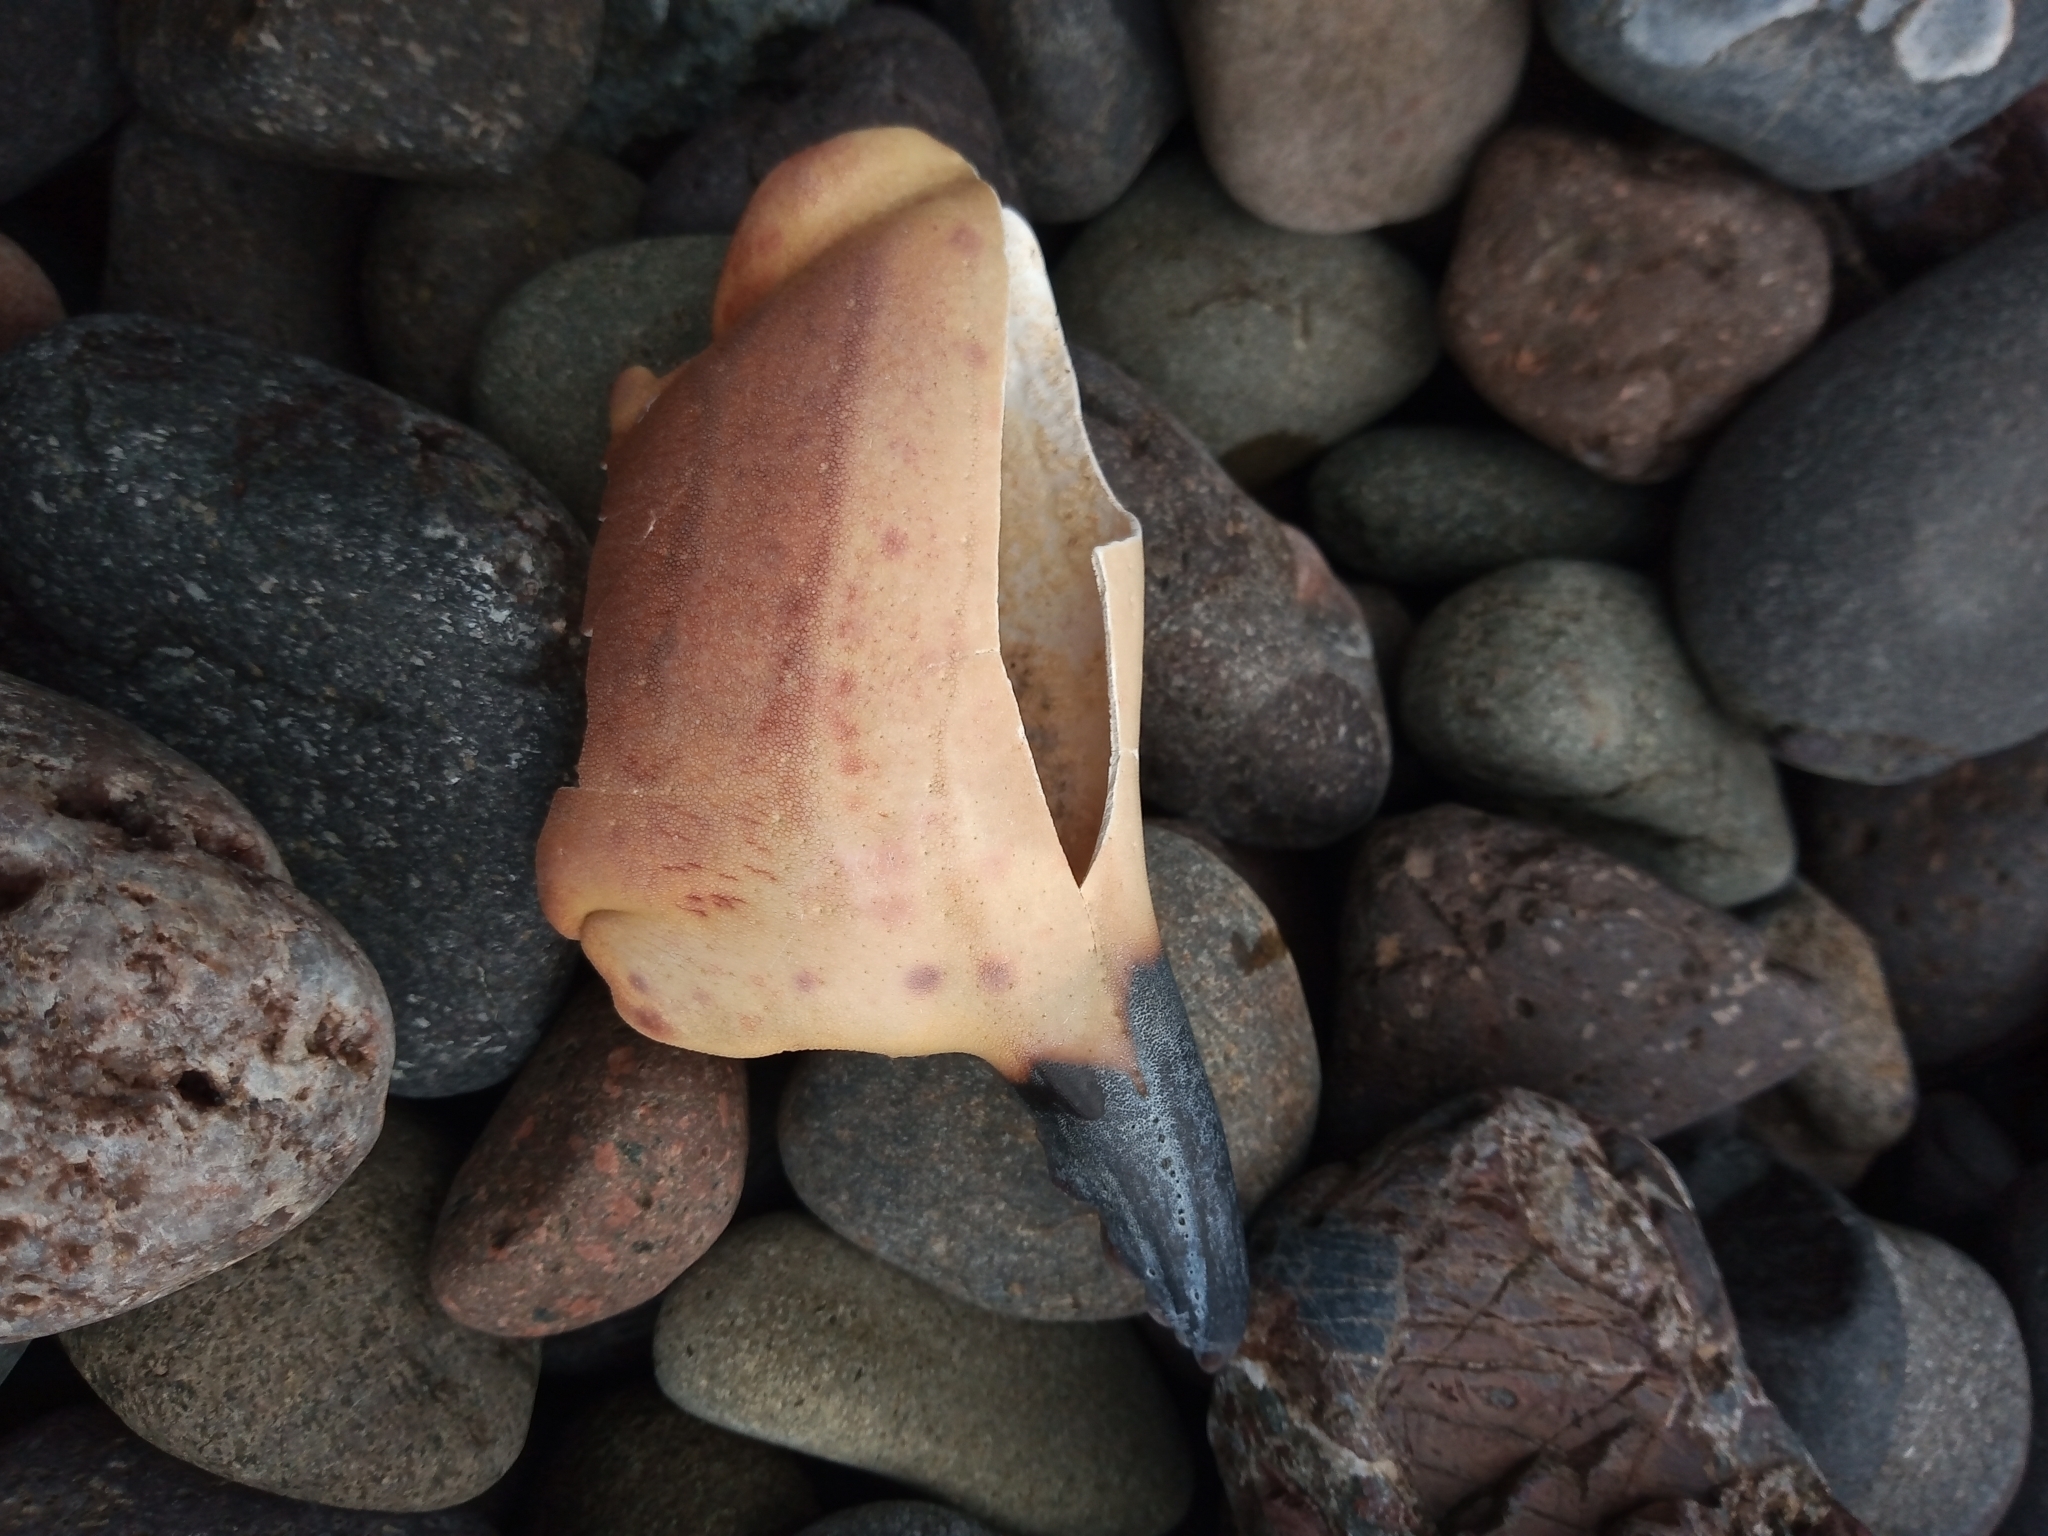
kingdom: Animalia
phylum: Arthropoda
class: Malacostraca
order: Decapoda
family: Cancridae
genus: Cancer
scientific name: Cancer pagurus
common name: Edible crab
